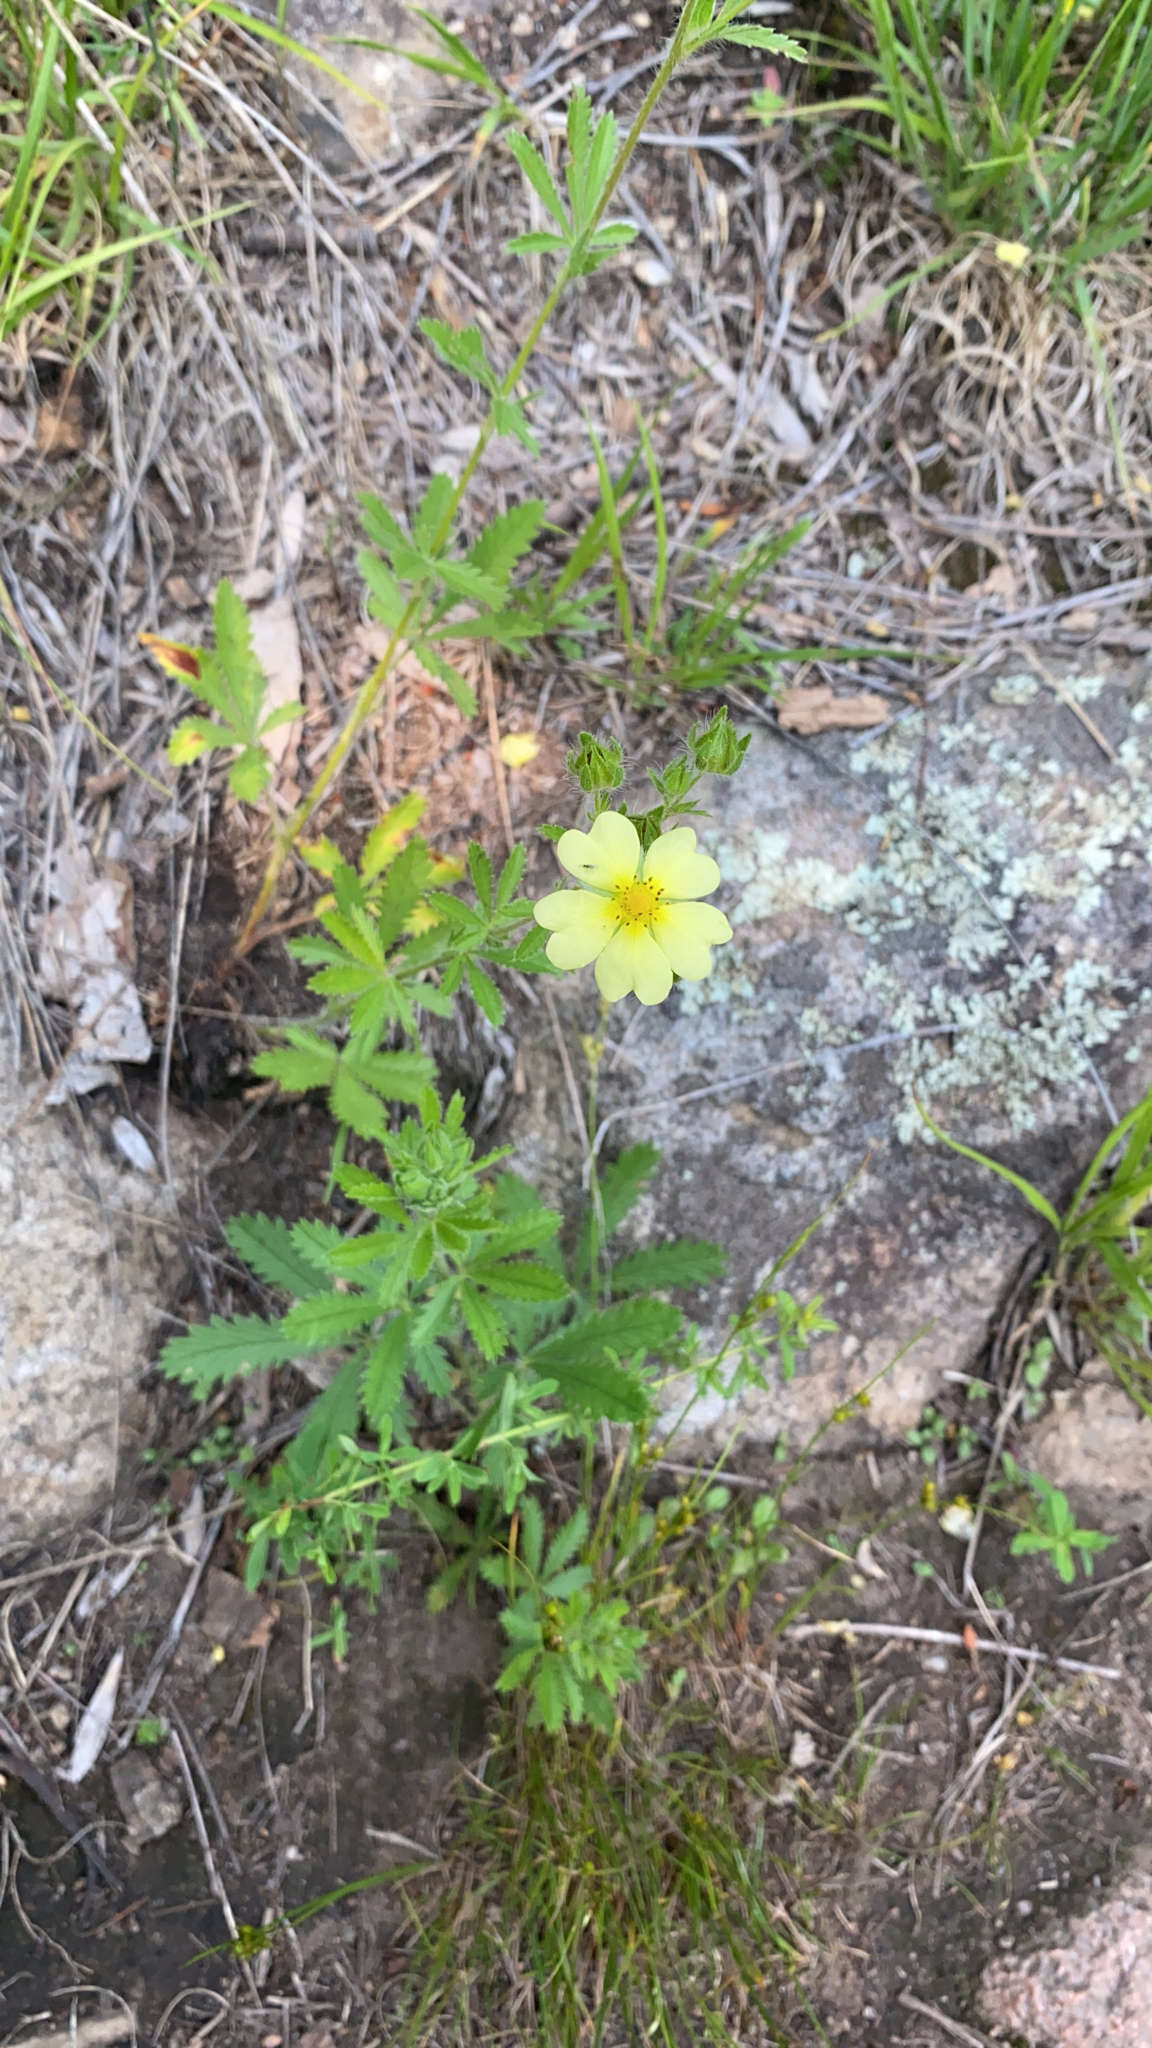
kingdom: Plantae
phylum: Tracheophyta
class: Magnoliopsida
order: Rosales
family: Rosaceae
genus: Potentilla
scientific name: Potentilla recta
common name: Sulphur cinquefoil
